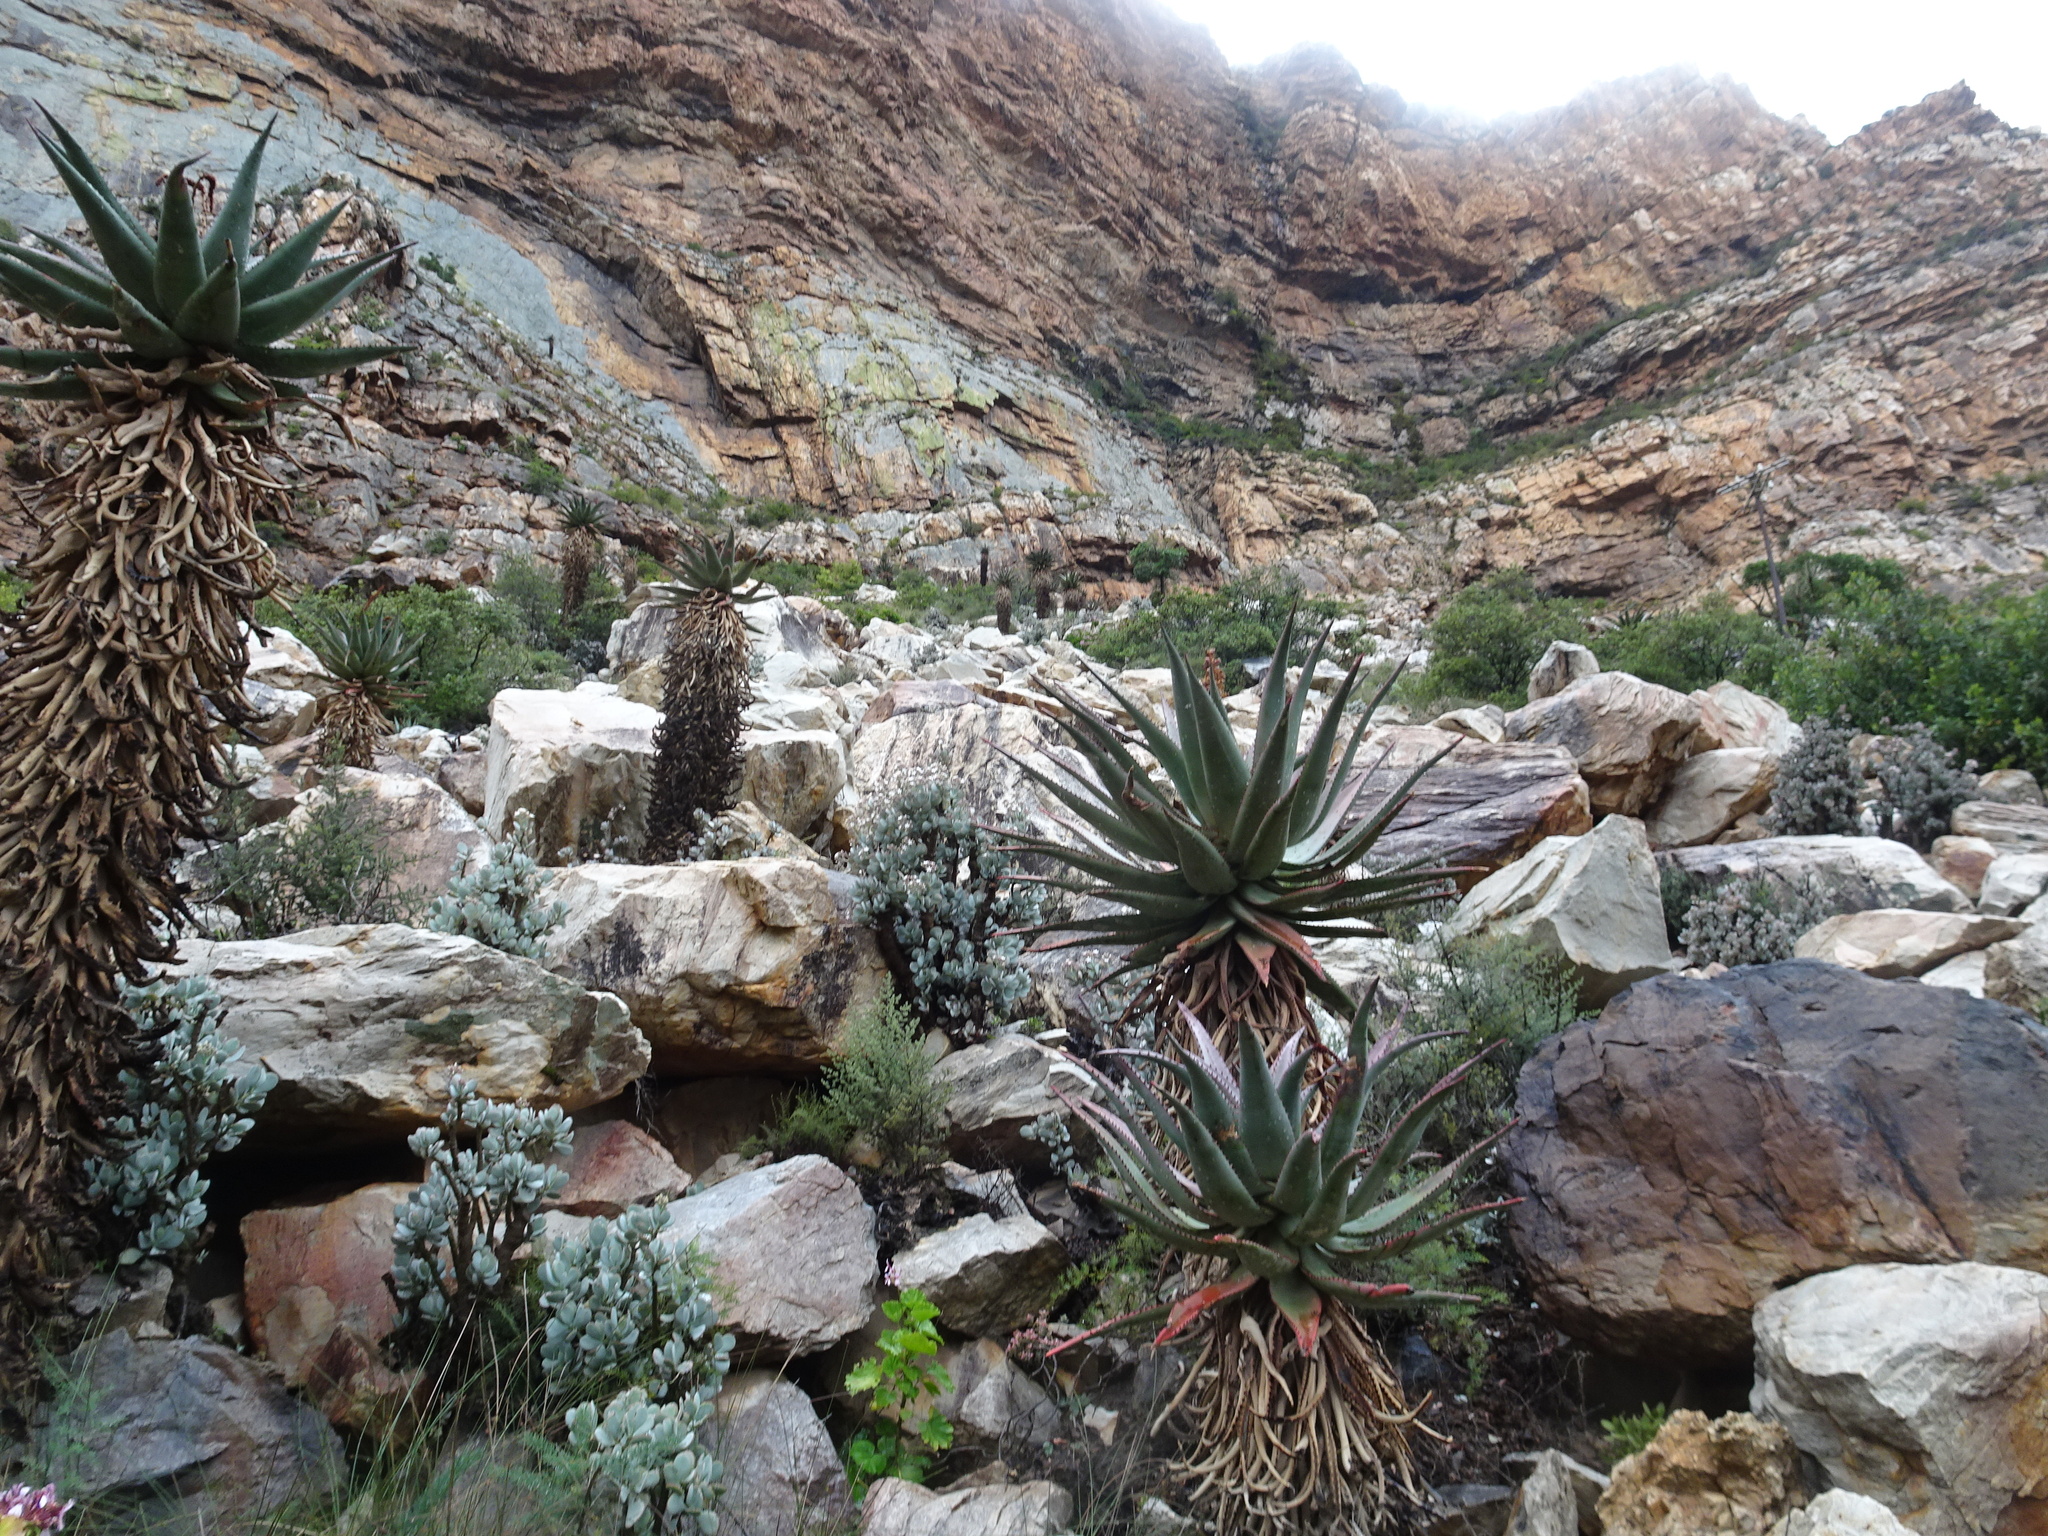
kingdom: Plantae
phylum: Tracheophyta
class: Liliopsida
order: Asparagales
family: Asphodelaceae
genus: Aloe
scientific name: Aloe ferox
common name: Bitter aloe
